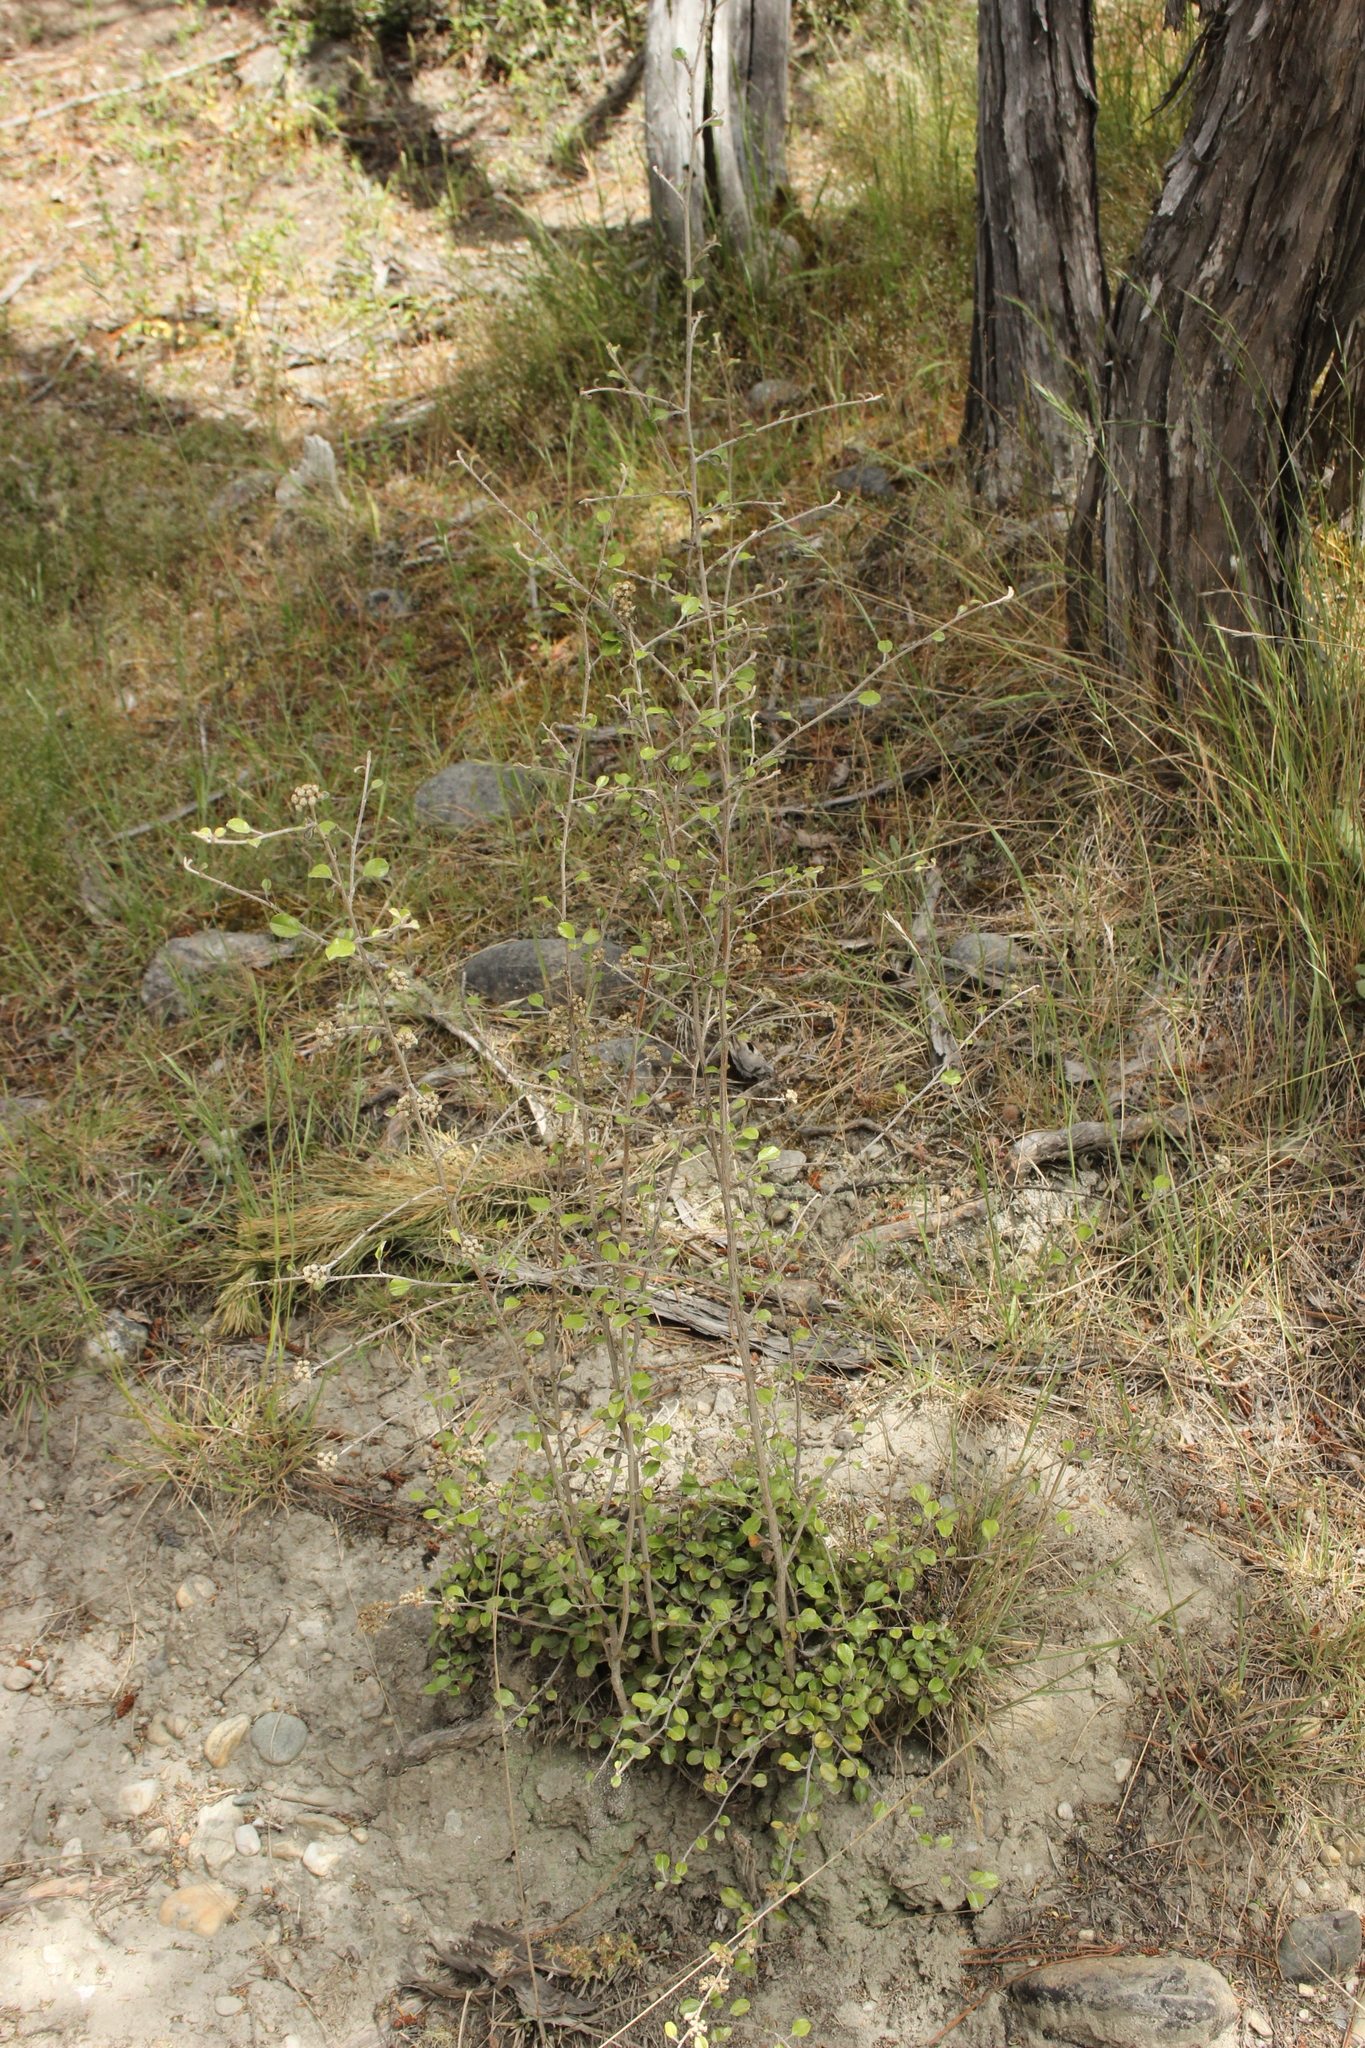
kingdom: Plantae
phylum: Tracheophyta
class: Magnoliopsida
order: Asterales
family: Asteraceae
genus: Ozothamnus
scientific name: Ozothamnus glomeratus
